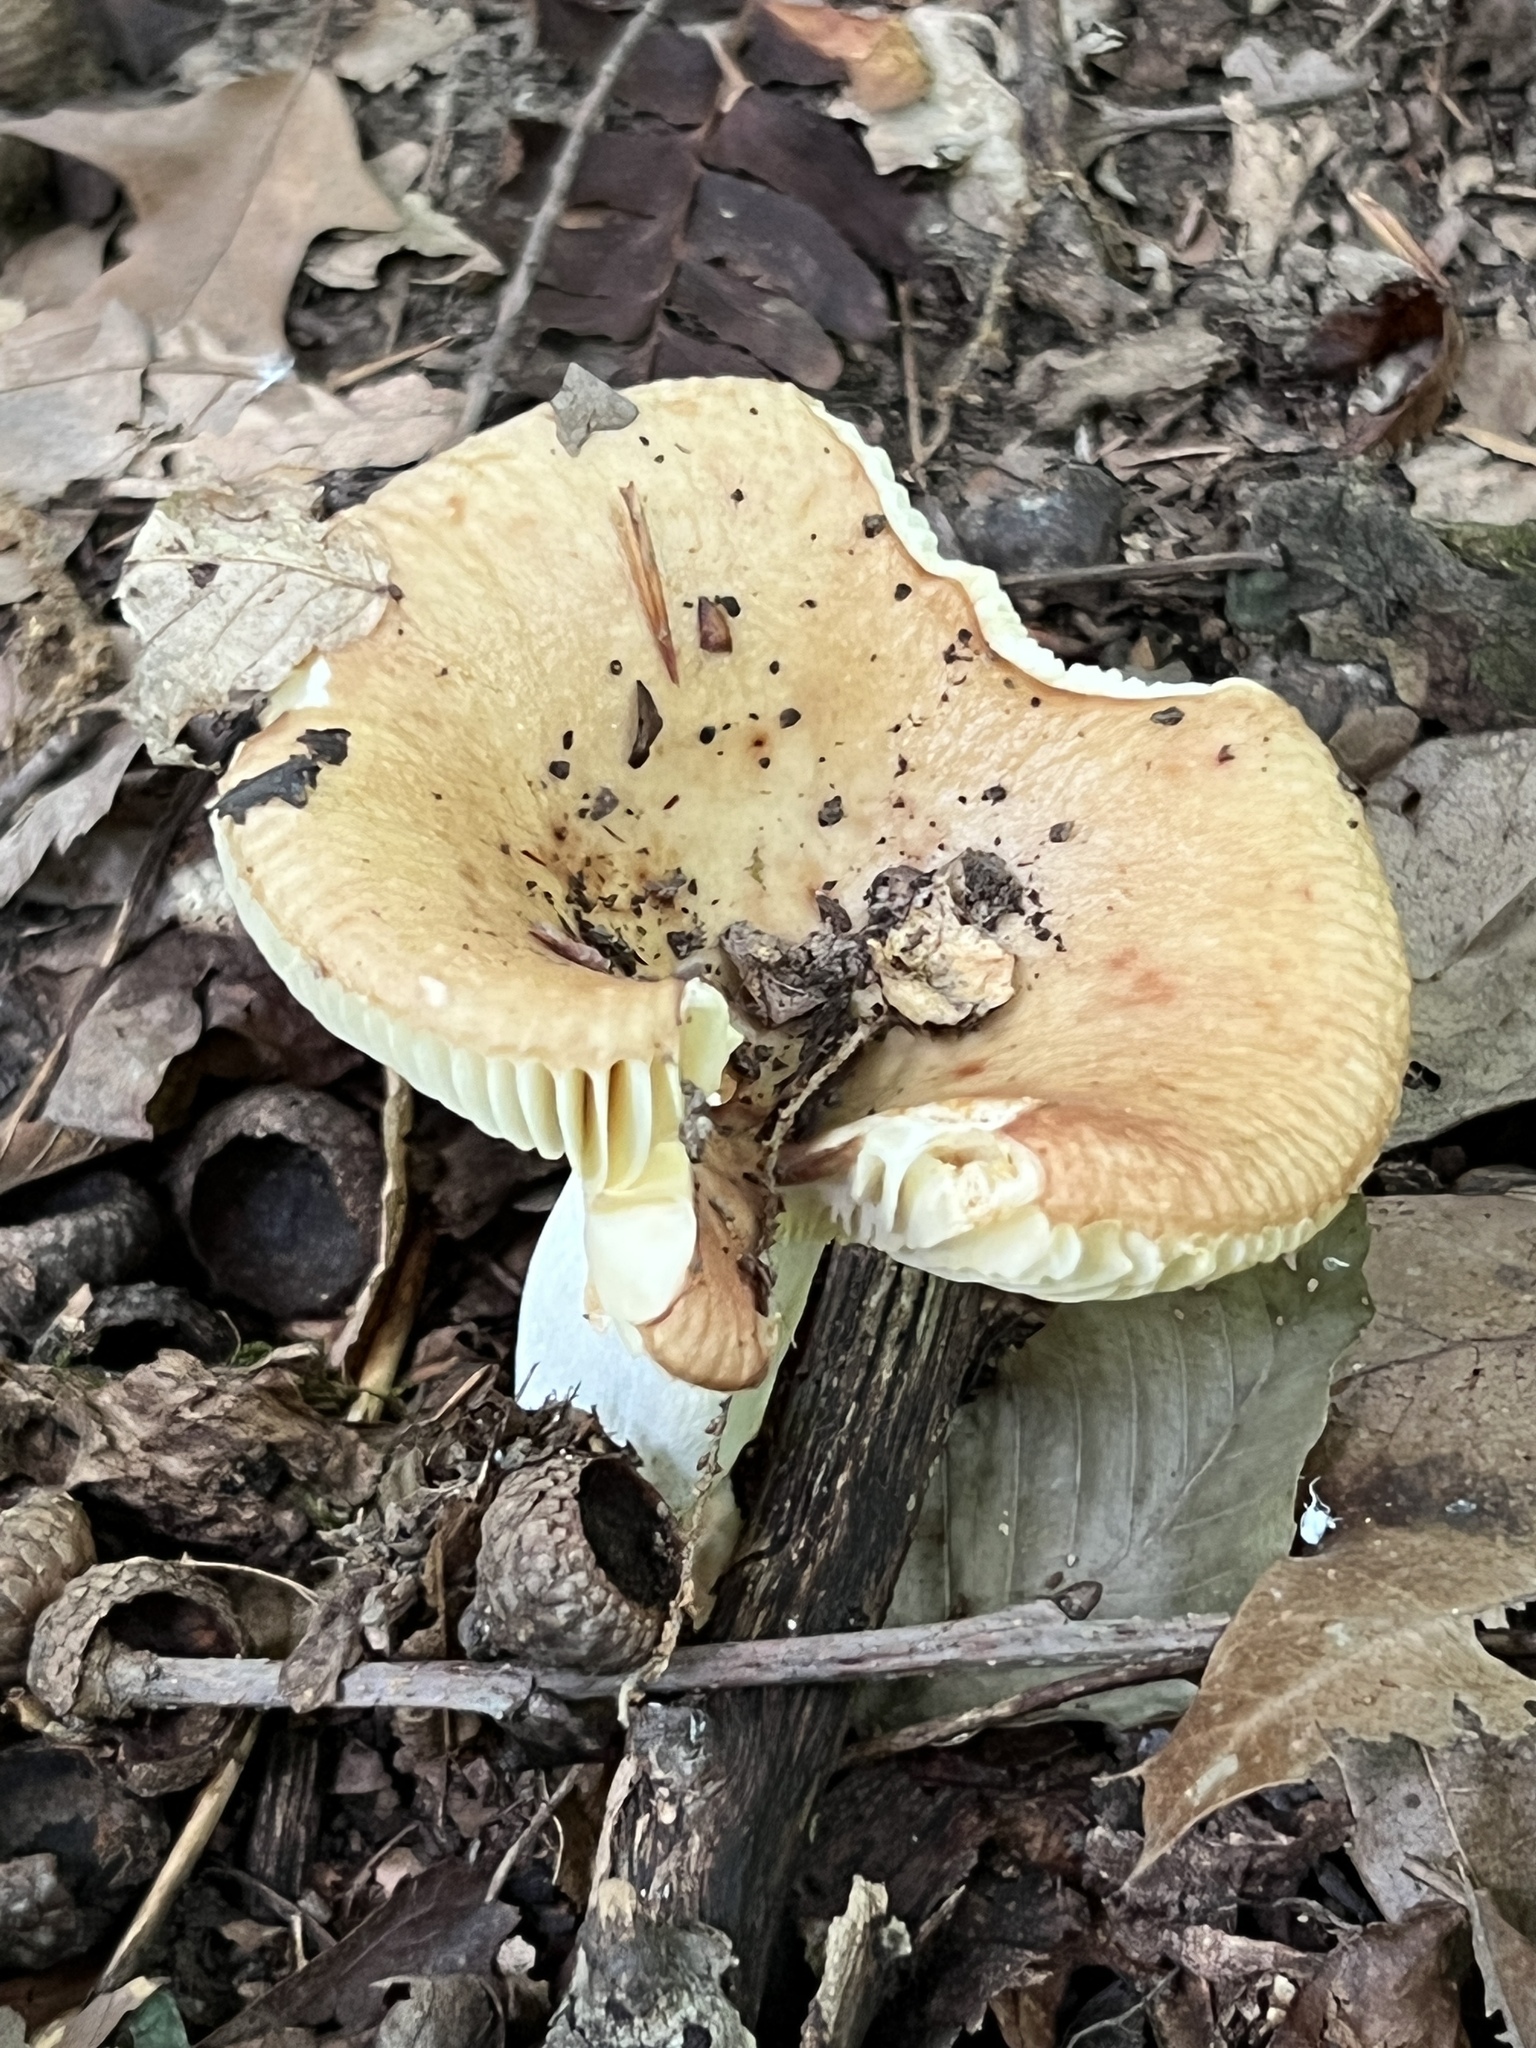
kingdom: Fungi
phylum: Basidiomycota
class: Agaricomycetes
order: Russulales
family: Russulaceae
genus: Russula
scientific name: Russula subrubescens
